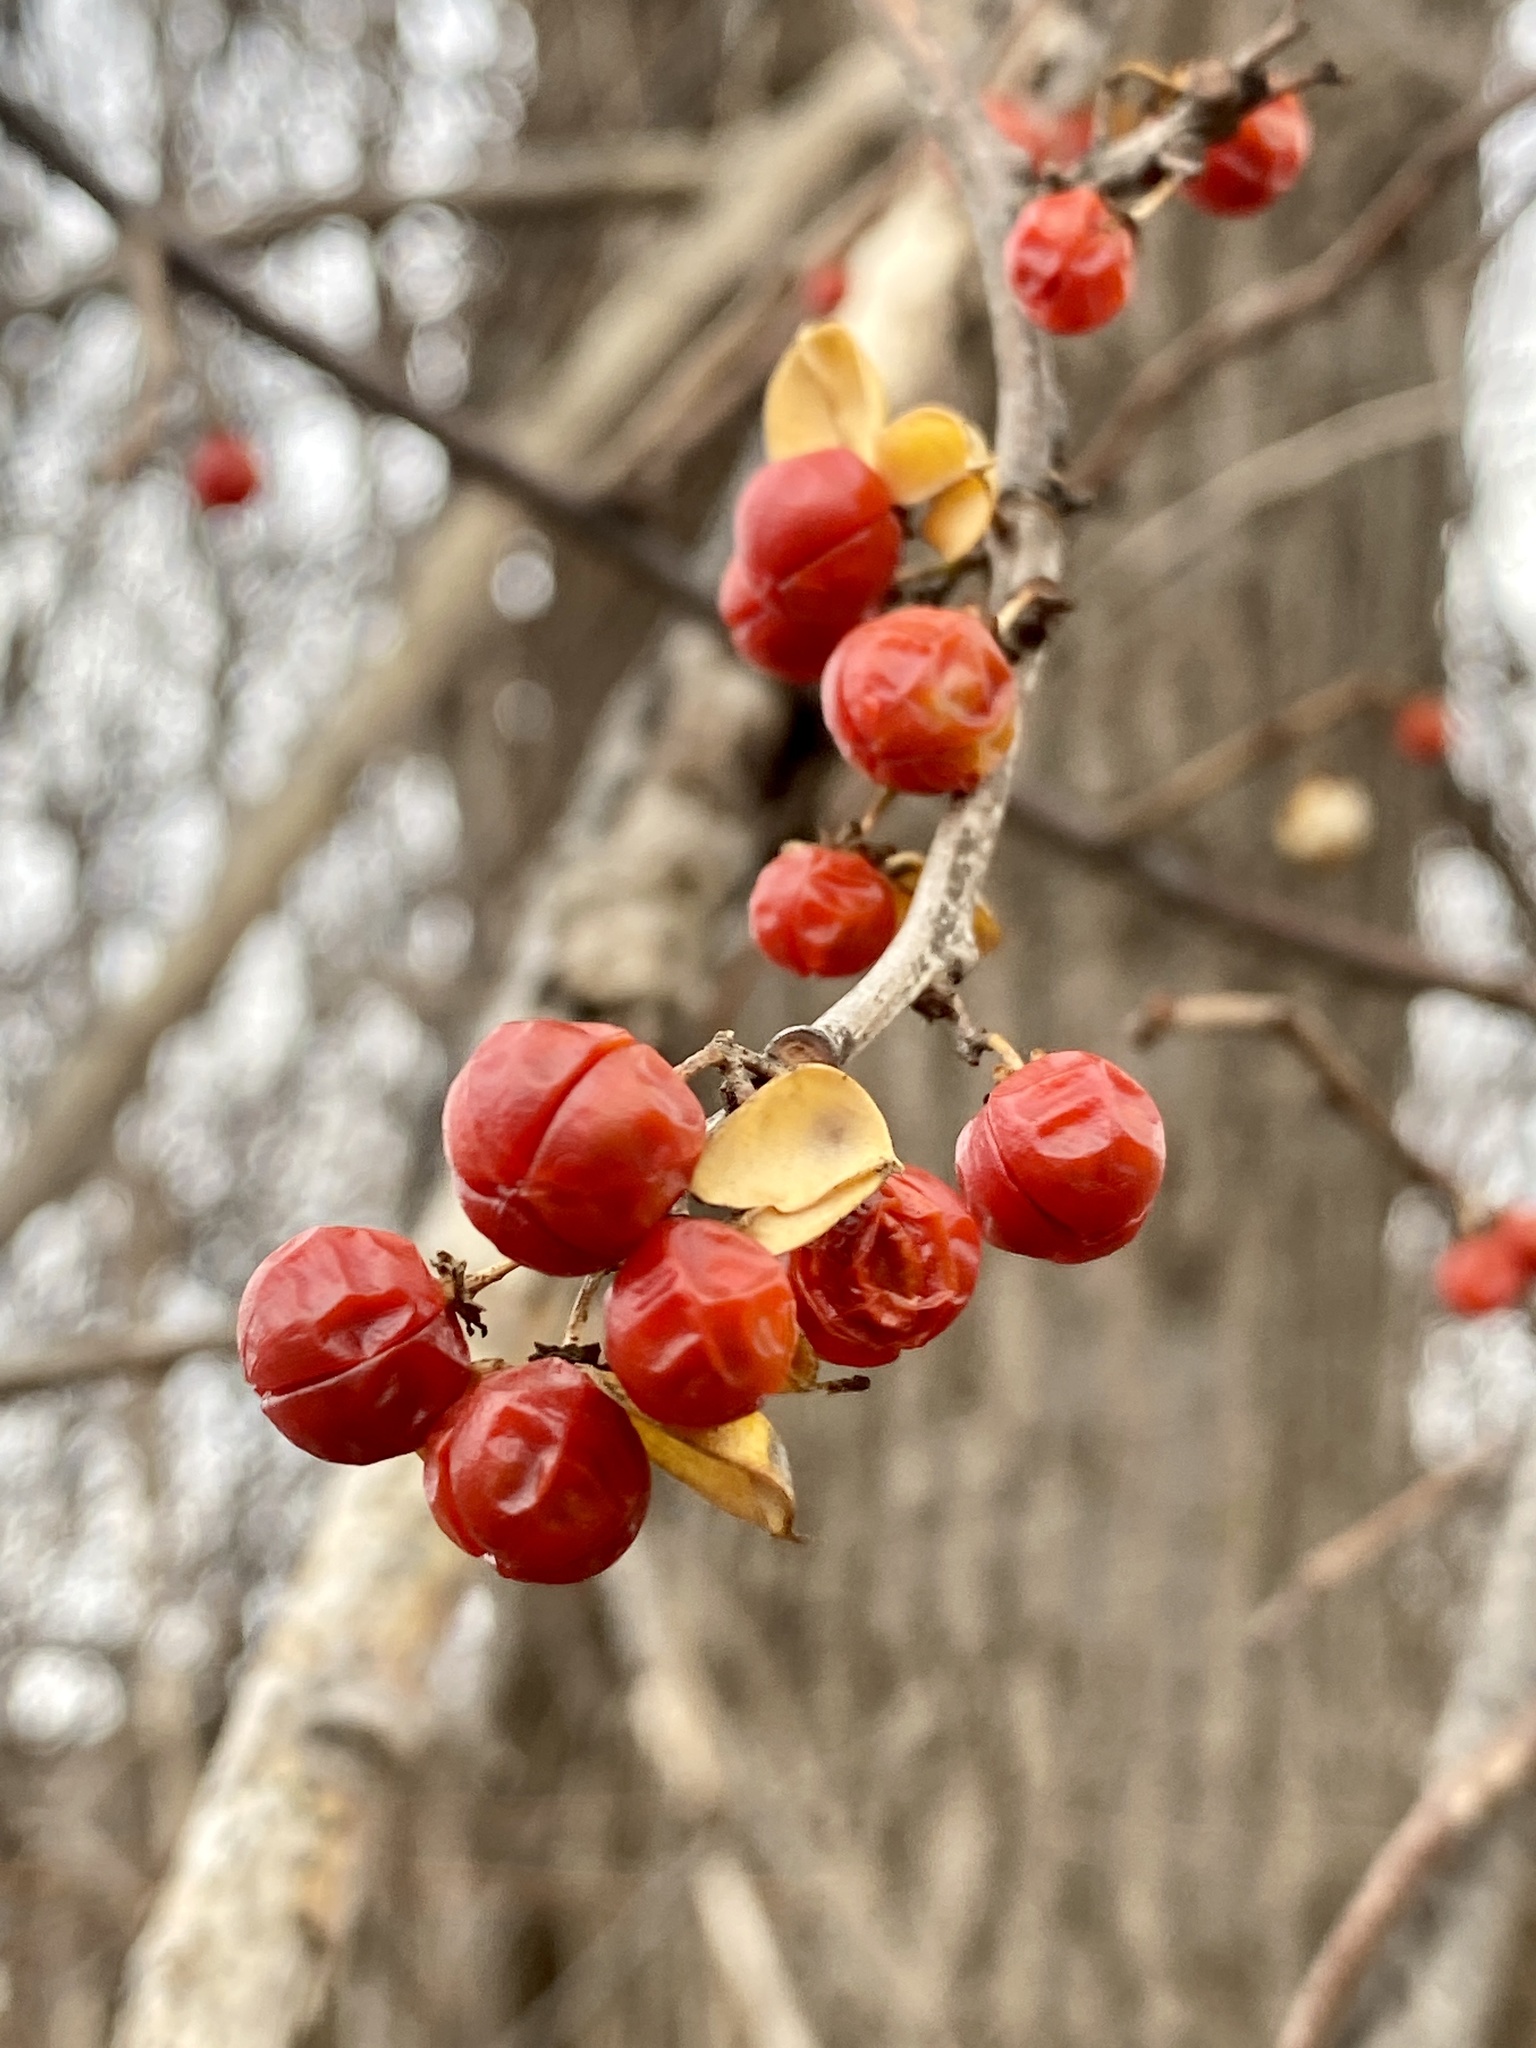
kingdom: Plantae
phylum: Tracheophyta
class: Magnoliopsida
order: Celastrales
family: Celastraceae
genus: Celastrus
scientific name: Celastrus orbiculatus
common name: Oriental bittersweet
